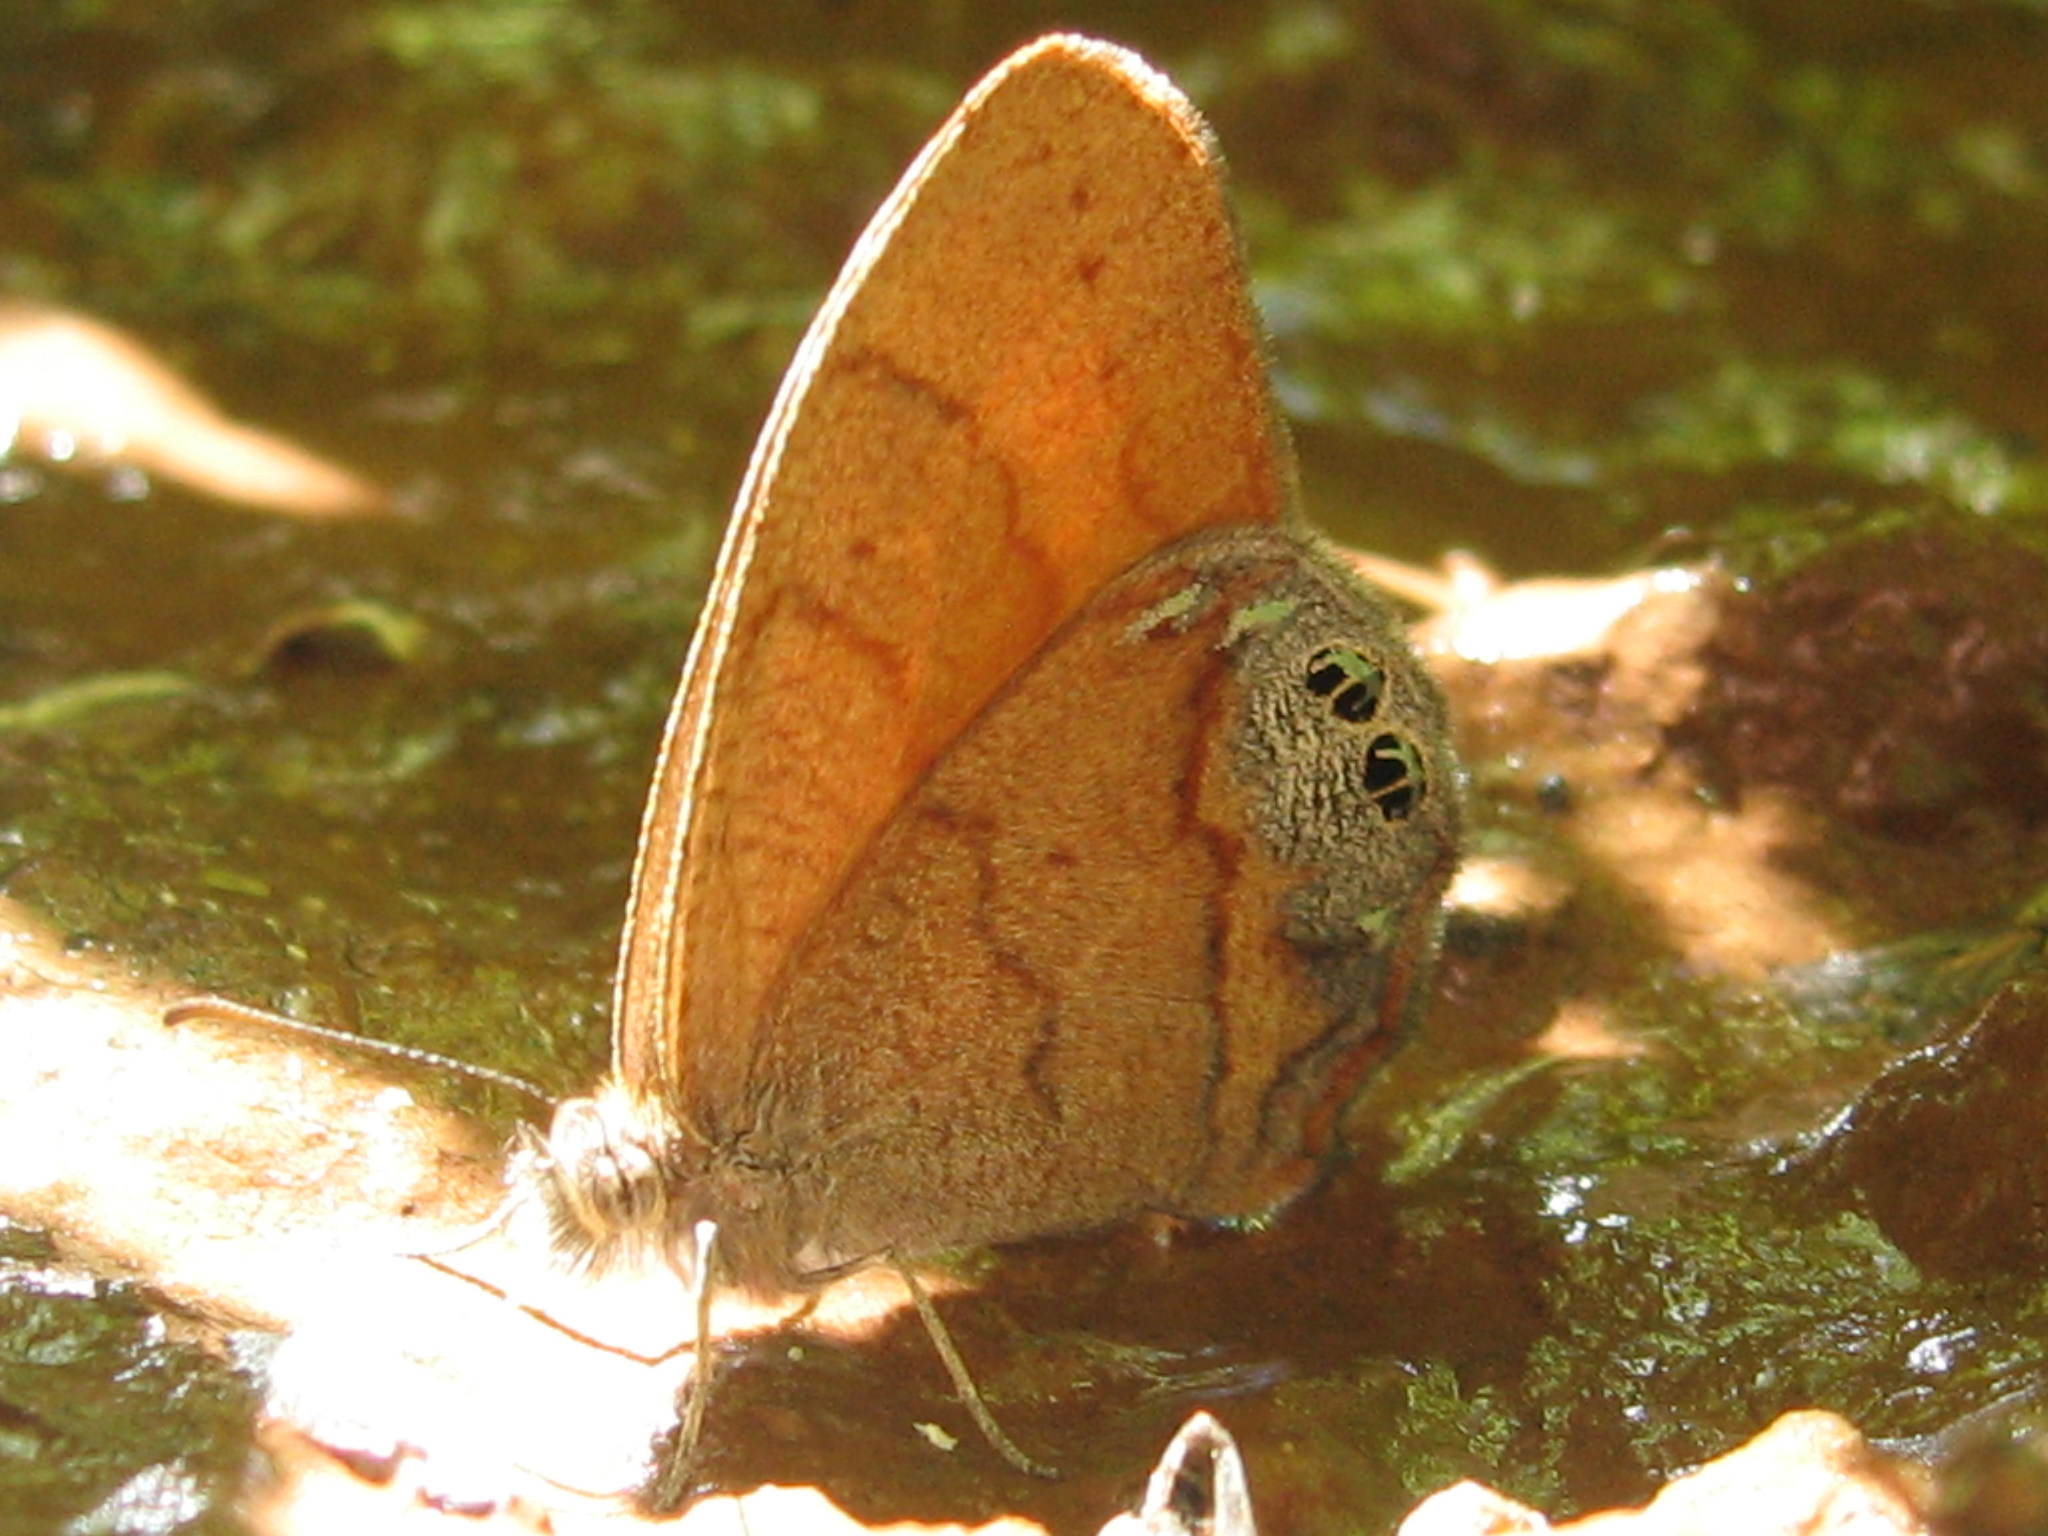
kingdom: Animalia
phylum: Arthropoda
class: Insecta
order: Lepidoptera
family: Nymphalidae
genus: Euptychia
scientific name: Euptychia Cyllopsis pertepida
